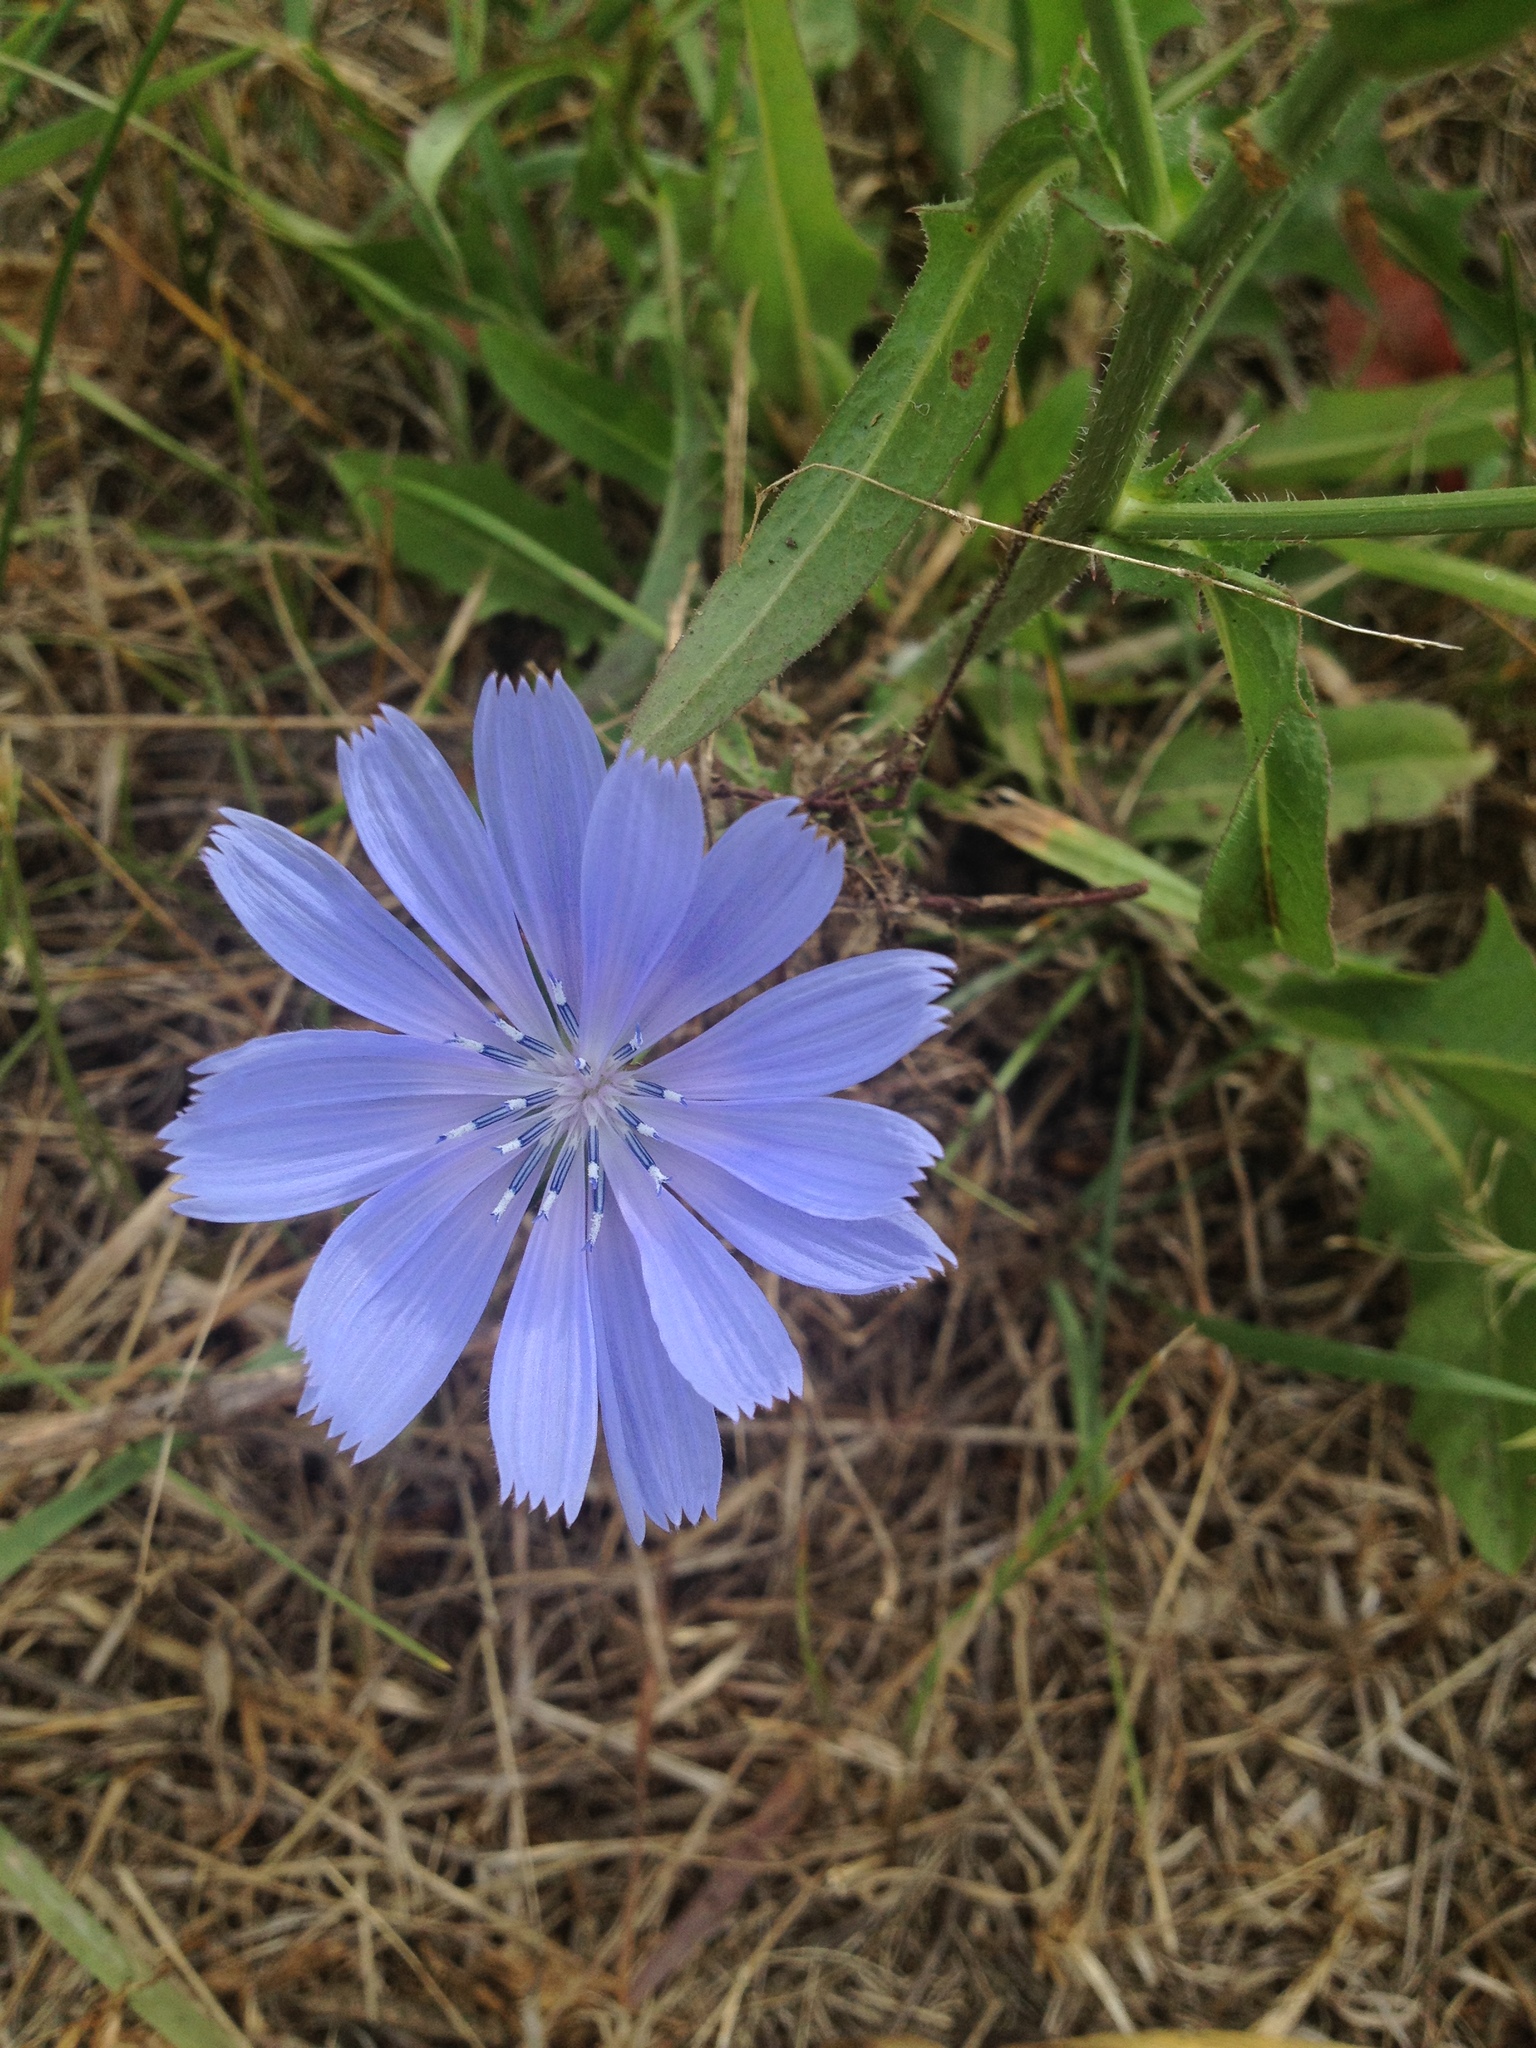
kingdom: Plantae
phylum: Tracheophyta
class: Magnoliopsida
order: Asterales
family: Asteraceae
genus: Cichorium
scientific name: Cichorium intybus
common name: Chicory
